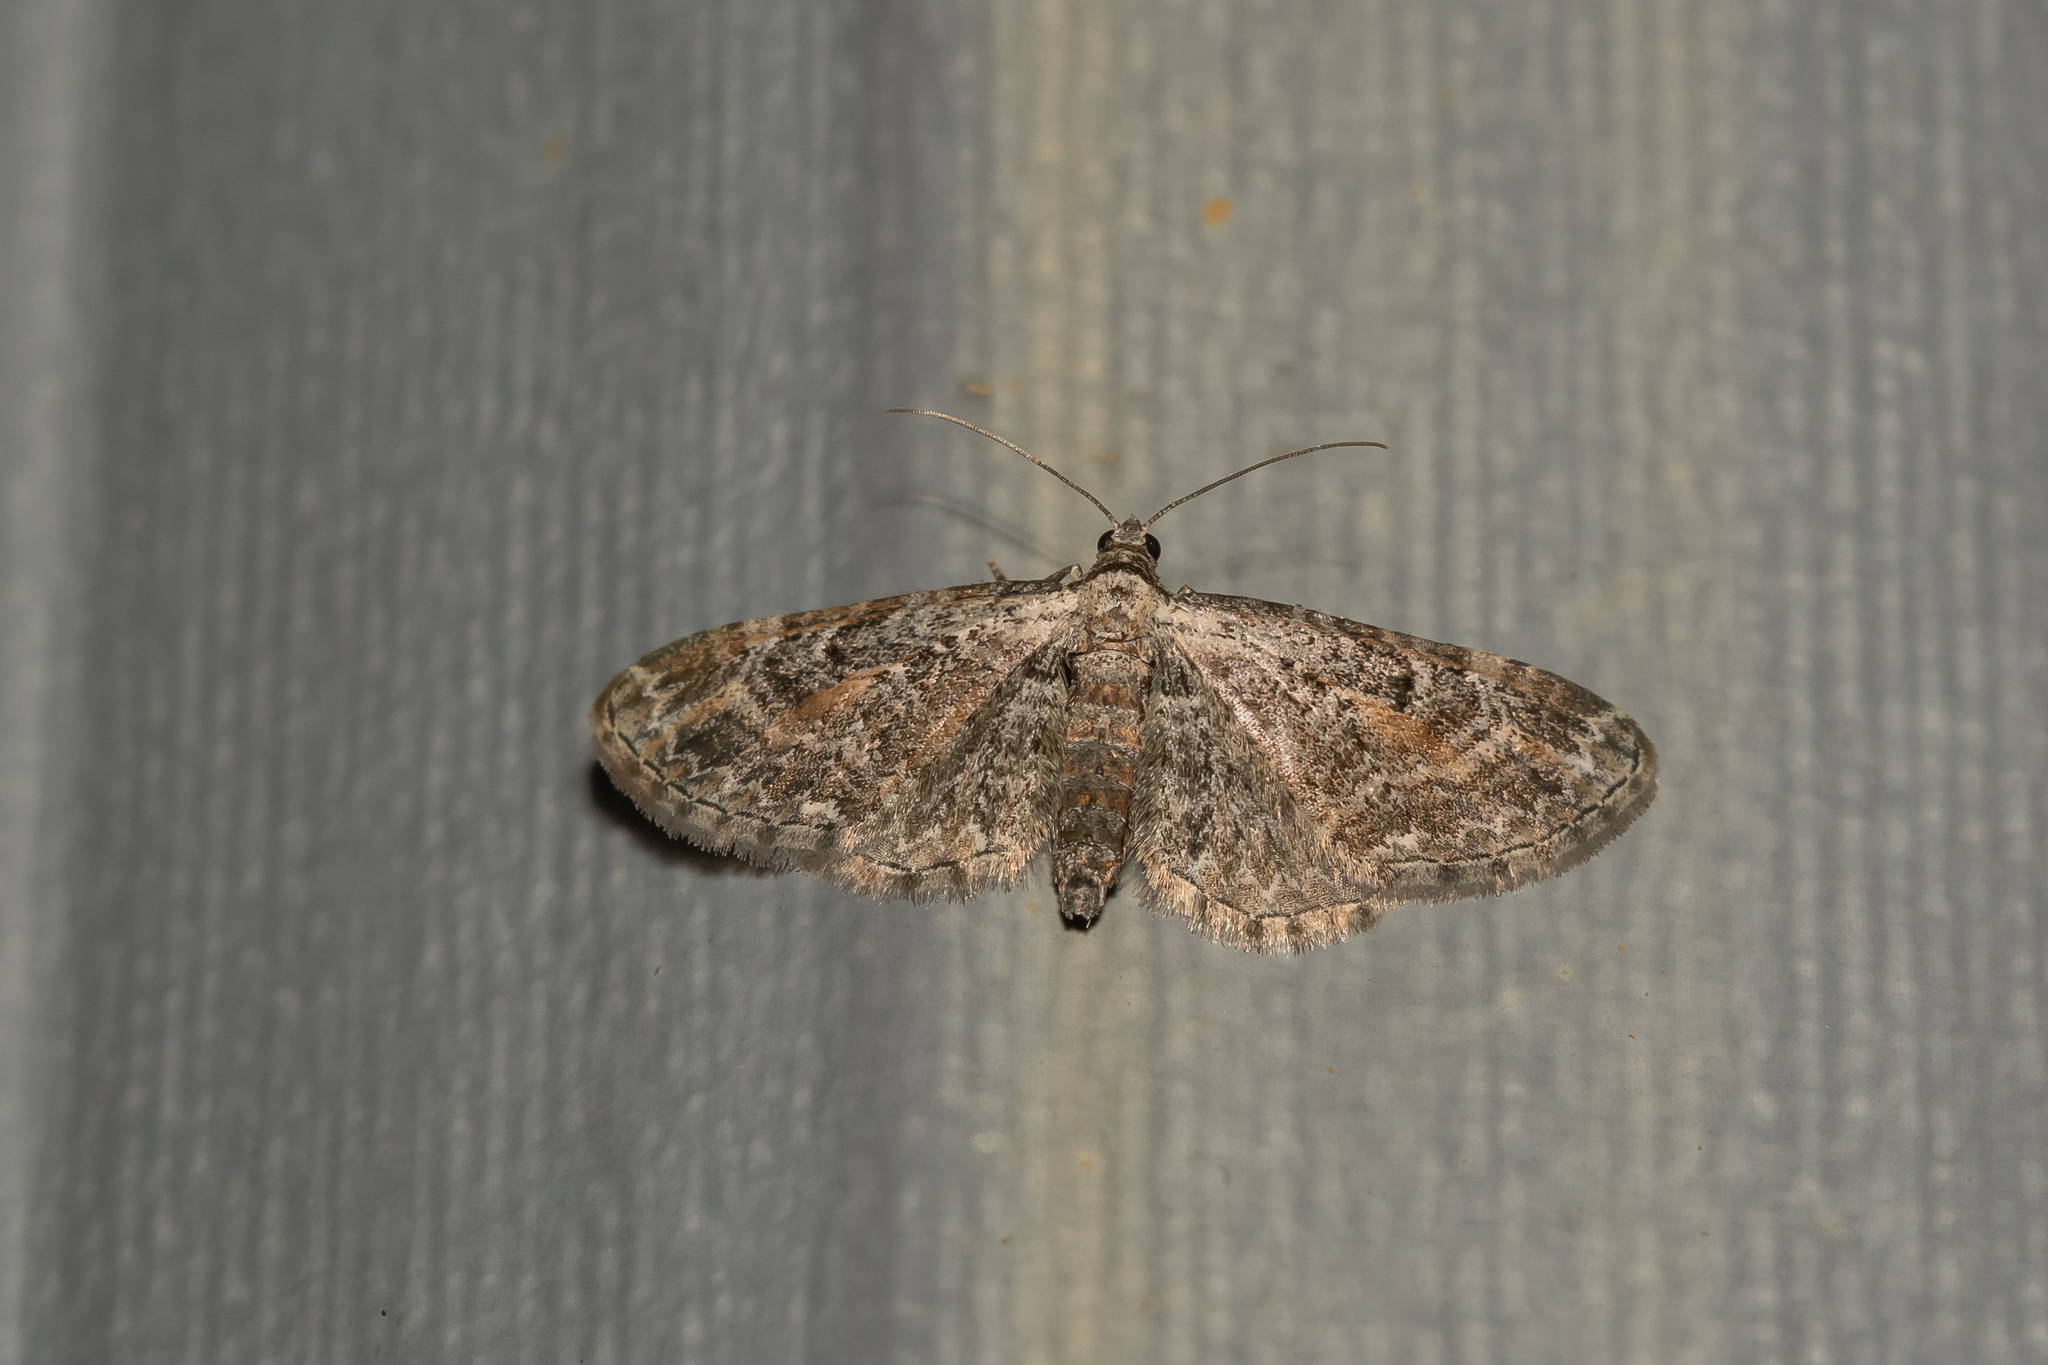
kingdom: Animalia
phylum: Arthropoda
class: Insecta
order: Lepidoptera
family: Geometridae
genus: Eupithecia
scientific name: Eupithecia icterata
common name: Tawny speckled pug
